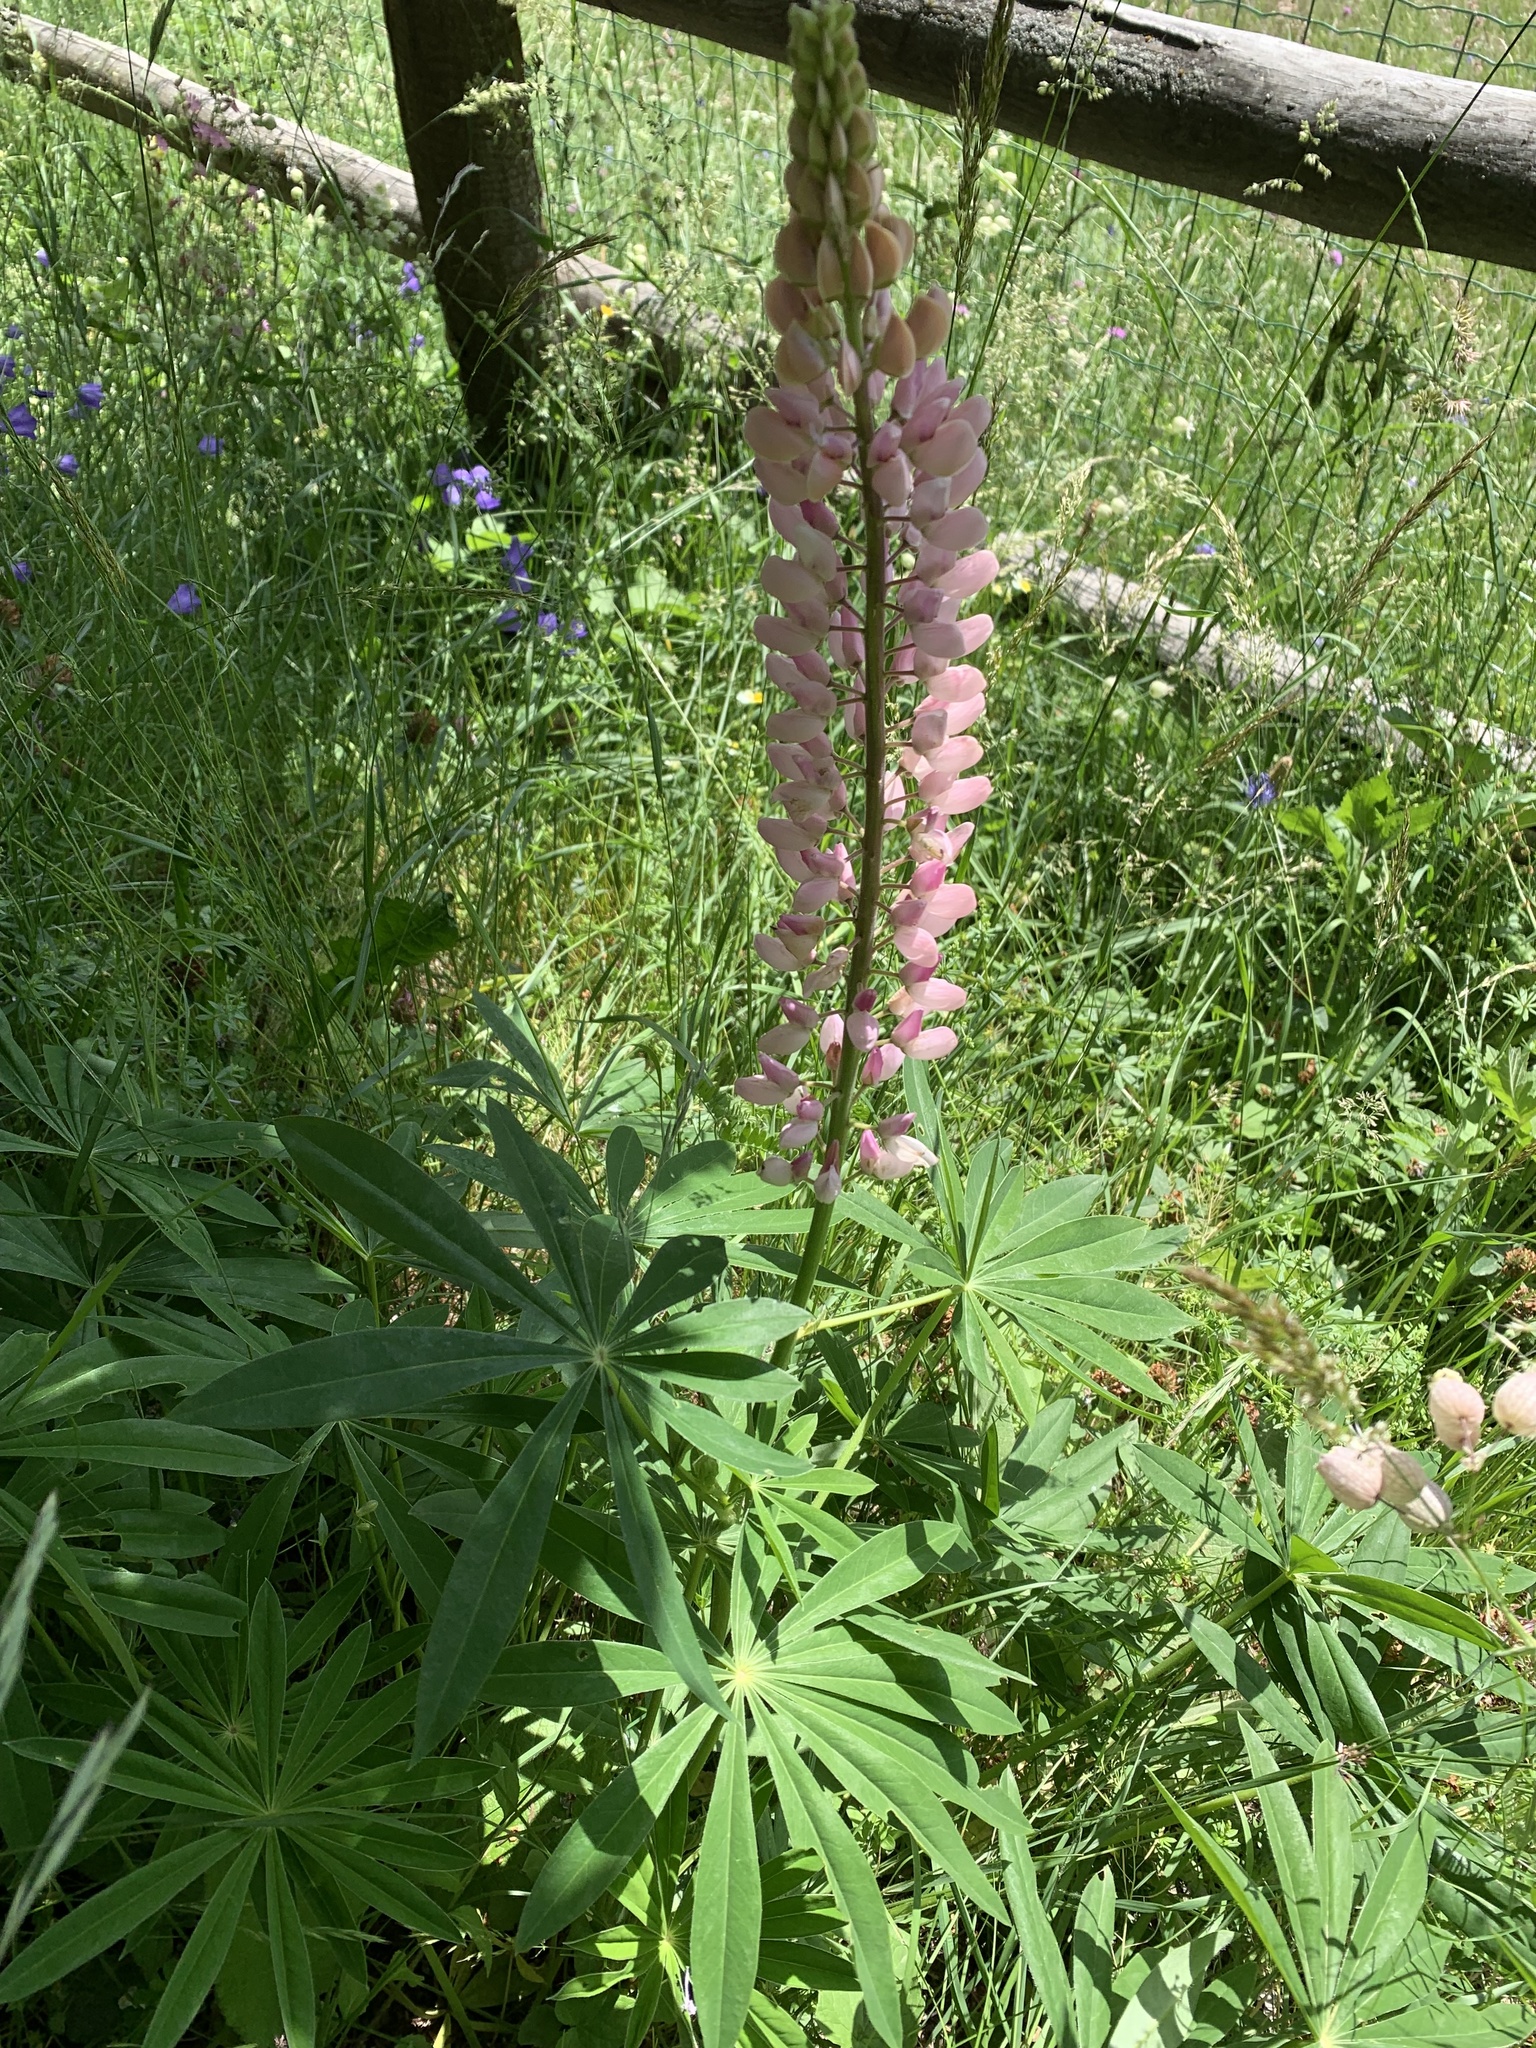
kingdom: Plantae
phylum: Tracheophyta
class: Magnoliopsida
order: Fabales
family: Fabaceae
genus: Lupinus
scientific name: Lupinus polyphyllus
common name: Garden lupin
